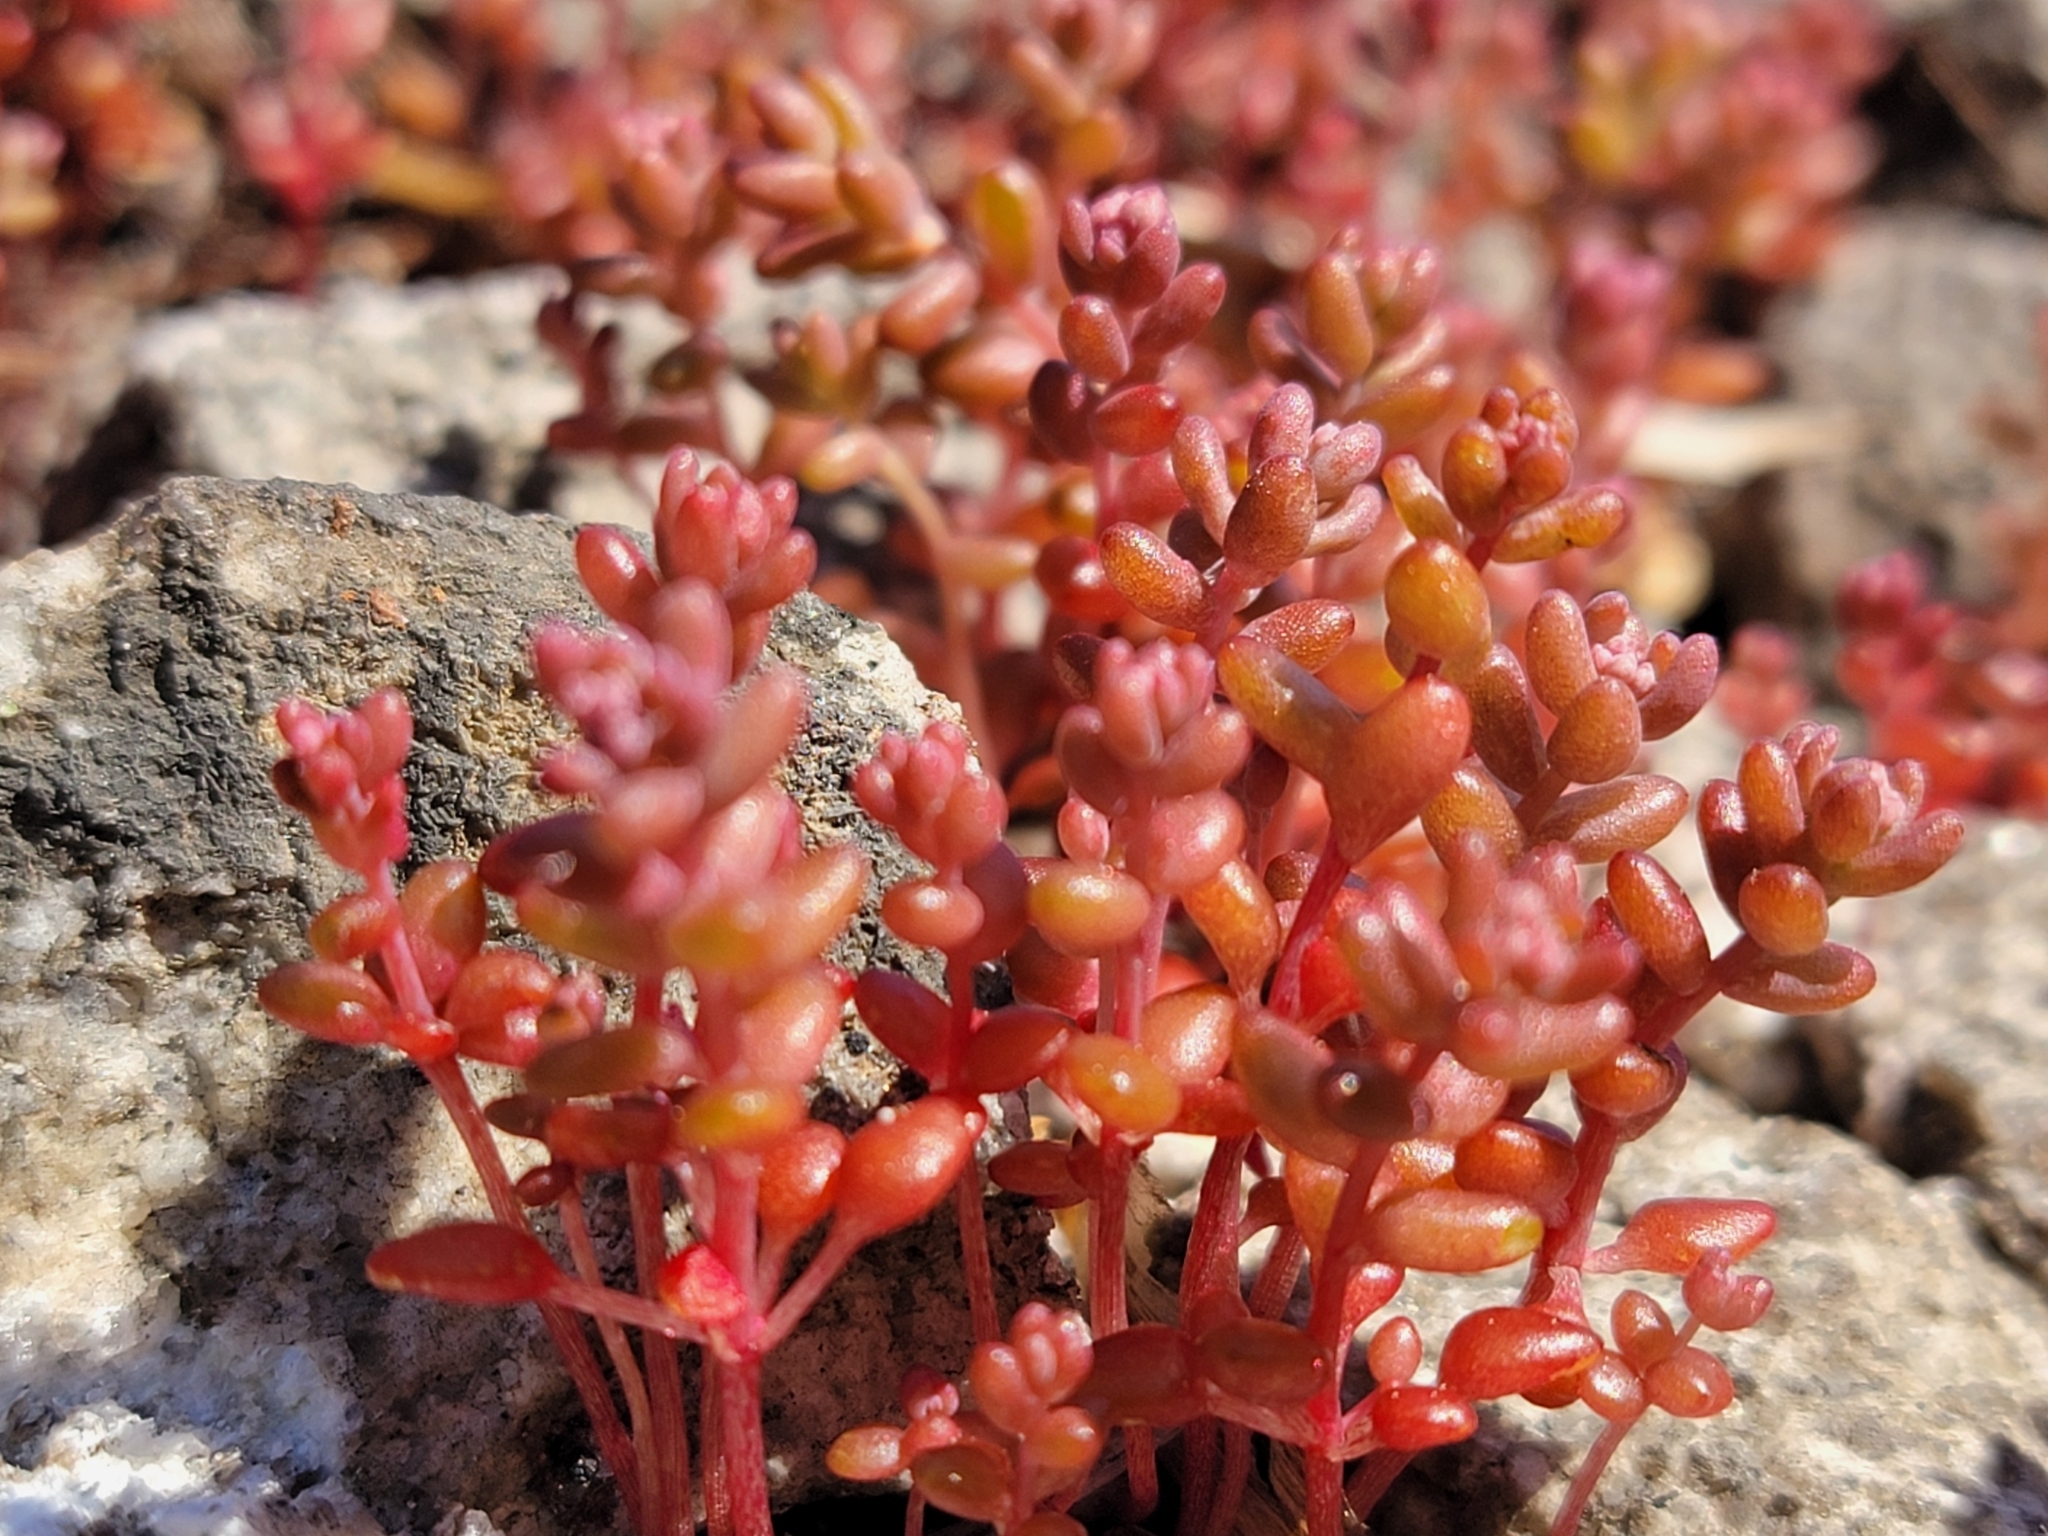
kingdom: Plantae
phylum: Tracheophyta
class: Magnoliopsida
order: Saxifragales
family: Crassulaceae
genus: Sedum
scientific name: Sedum smallii
